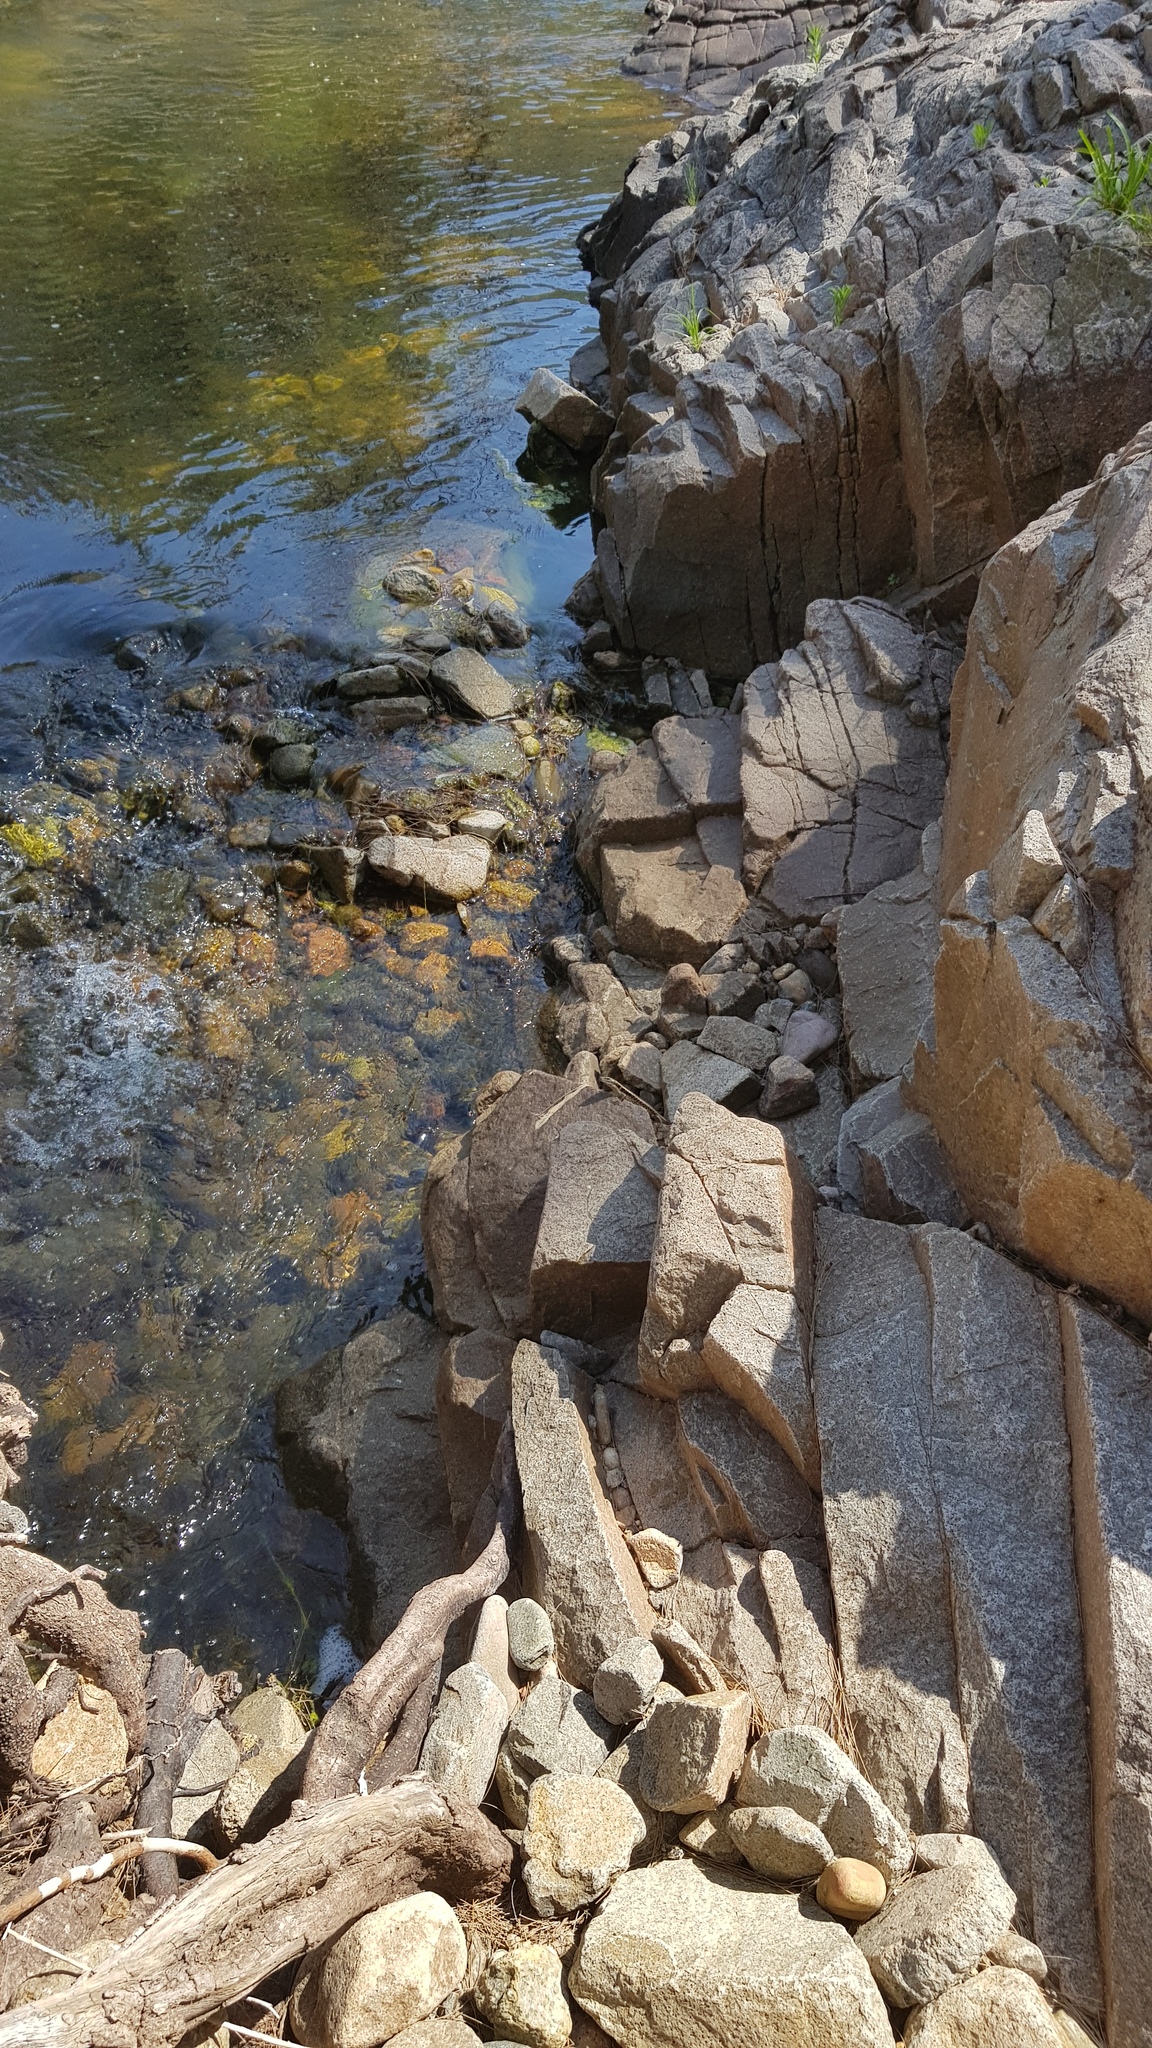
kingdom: Animalia
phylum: Chordata
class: Squamata
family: Scincidae
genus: Eulamprus
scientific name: Eulamprus quoyii
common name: Eastern water skink
